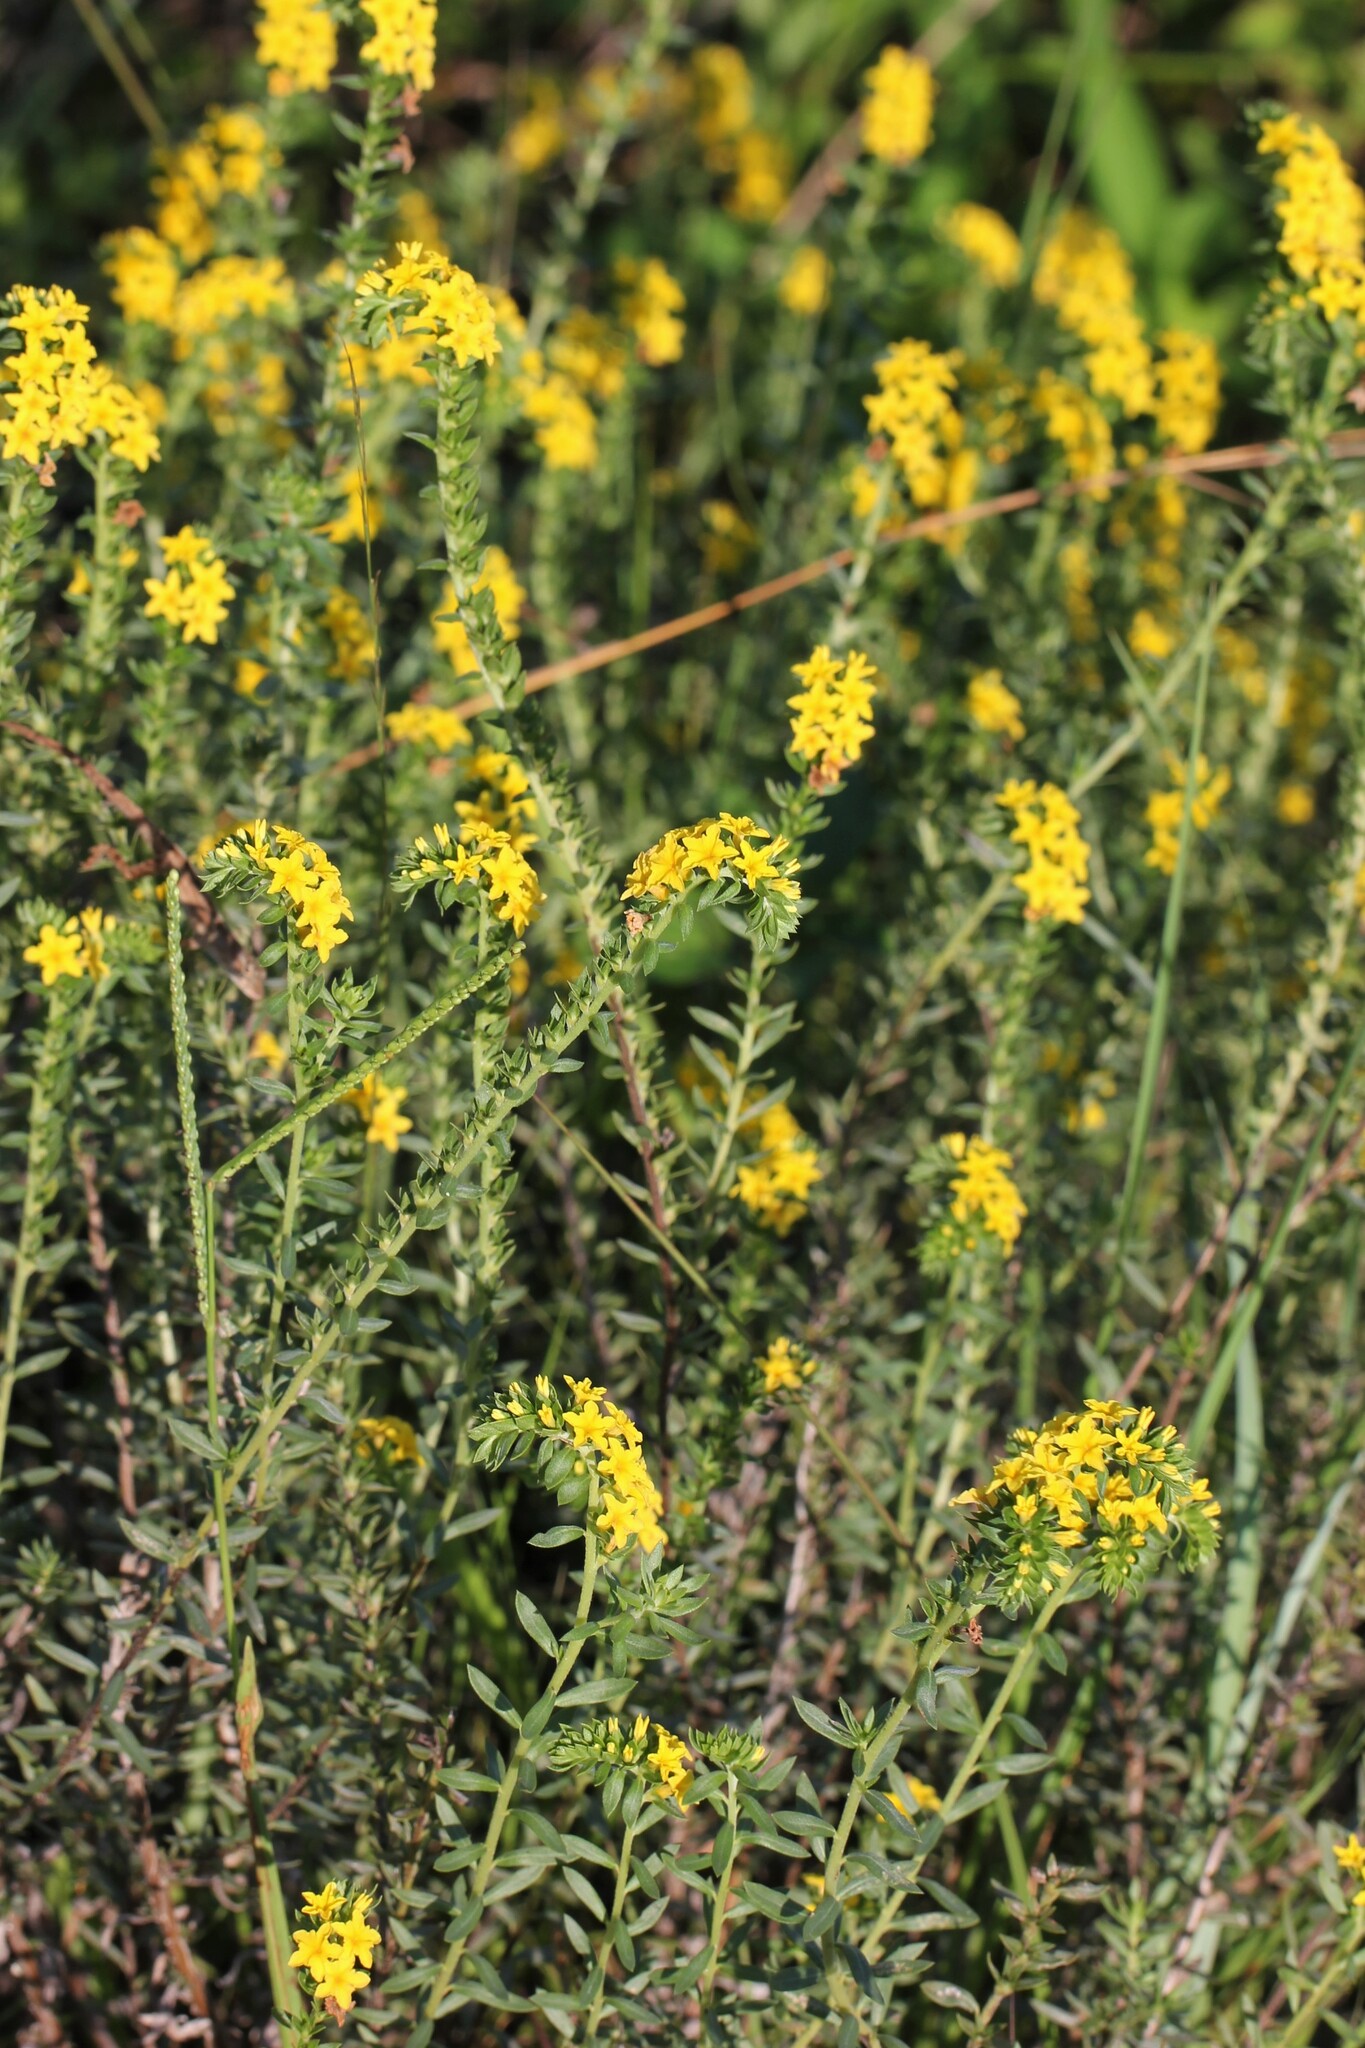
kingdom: Plantae
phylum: Tracheophyta
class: Magnoliopsida
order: Boraginales
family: Heliotropiaceae
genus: Euploca
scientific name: Euploca polyphylla
